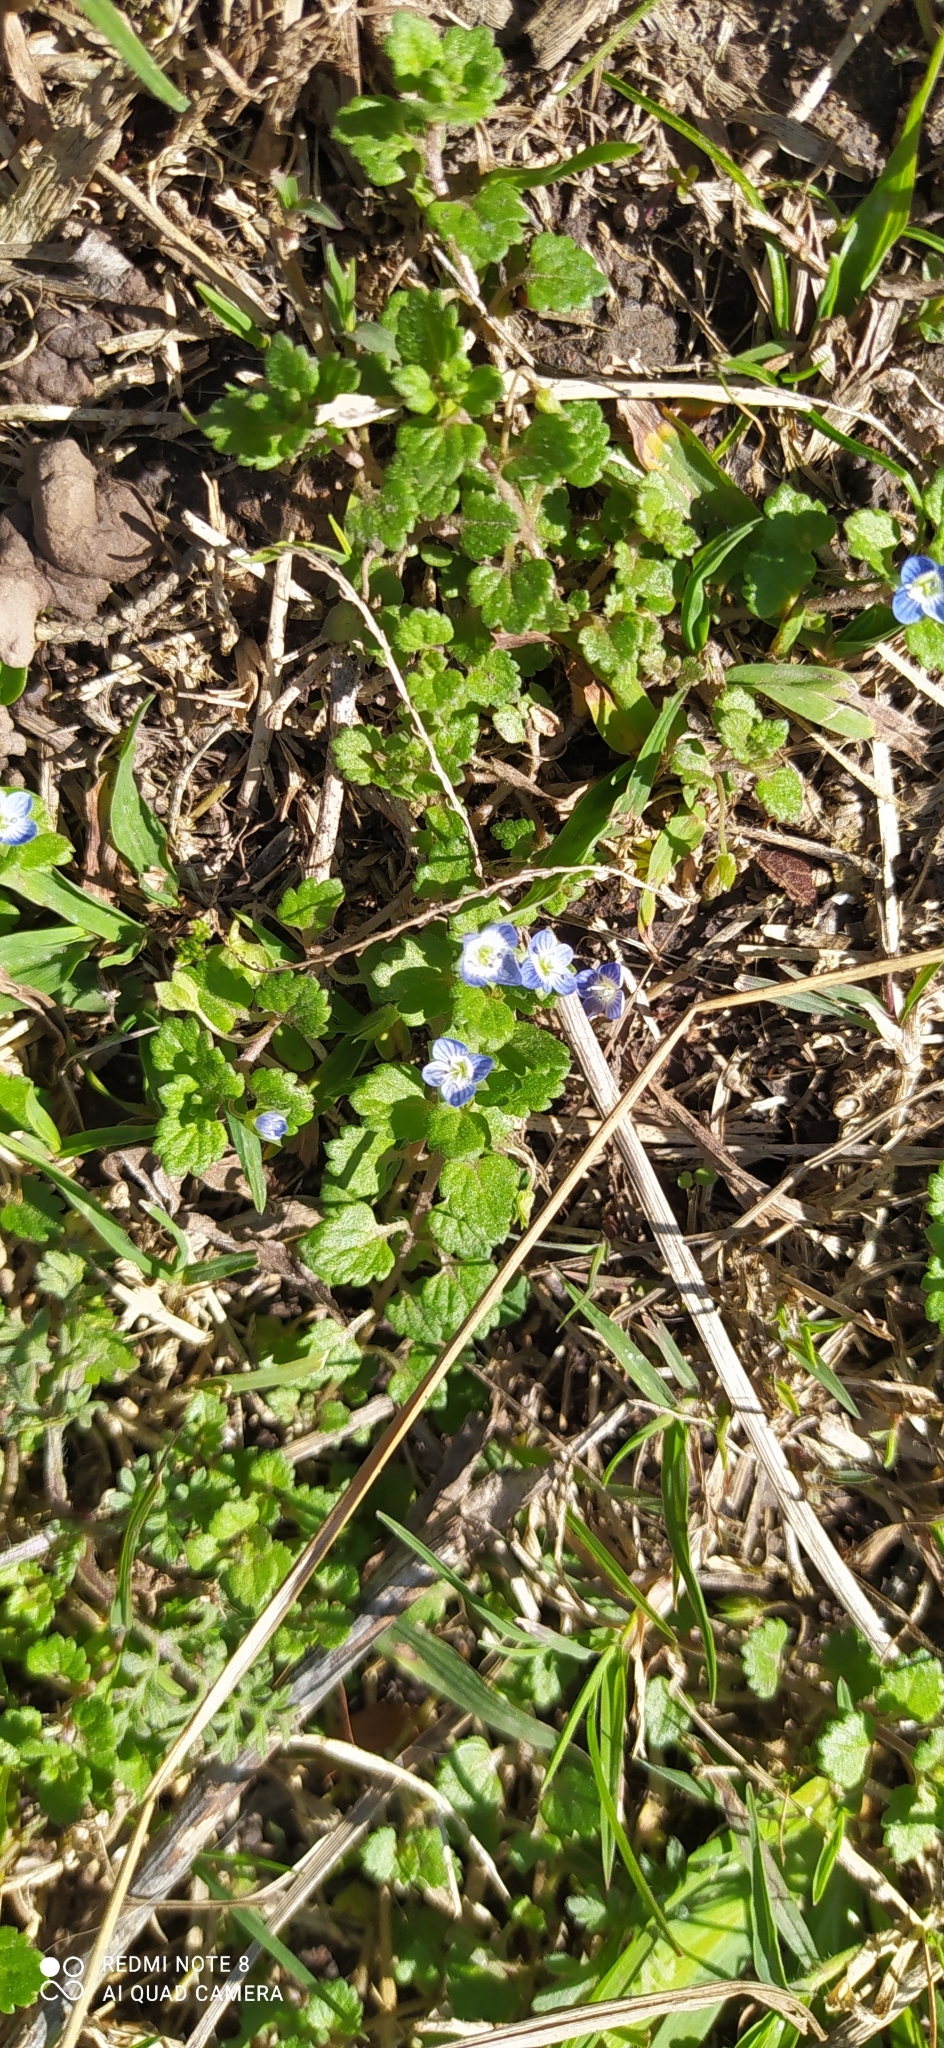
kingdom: Plantae
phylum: Tracheophyta
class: Magnoliopsida
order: Lamiales
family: Plantaginaceae
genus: Veronica
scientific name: Veronica persica
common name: Common field-speedwell
